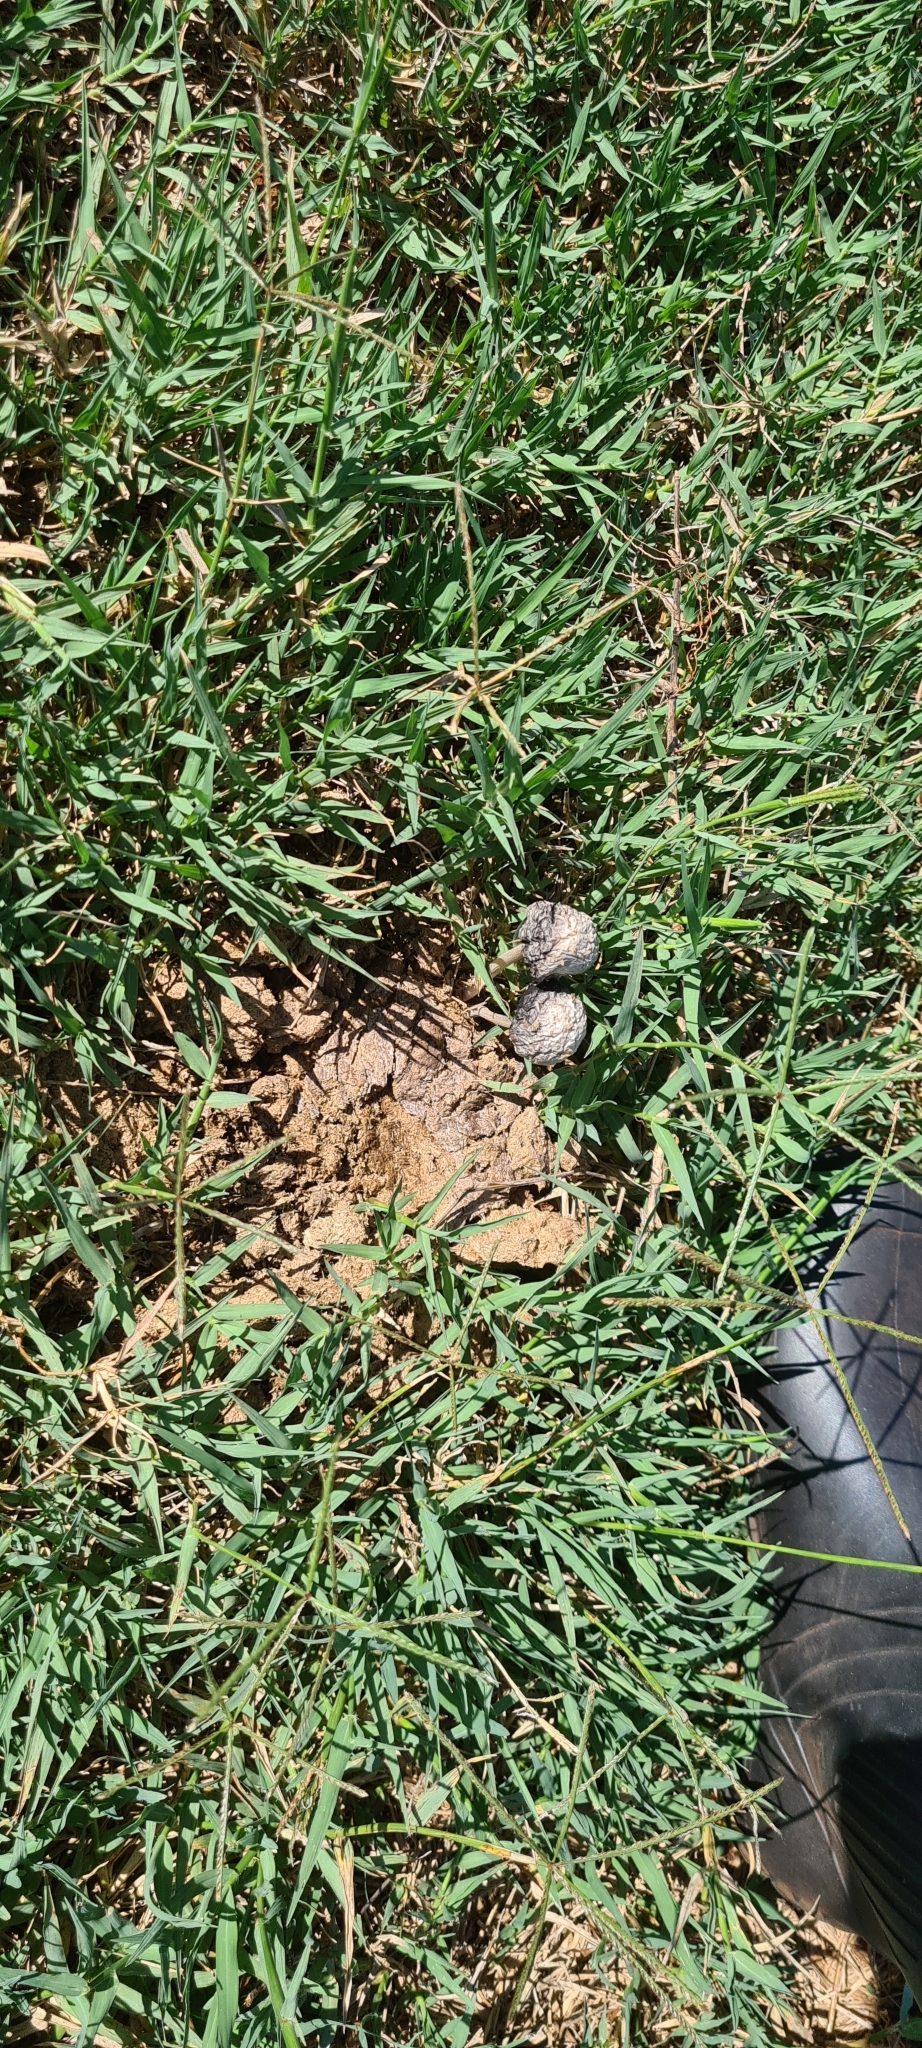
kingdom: Fungi
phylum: Basidiomycota
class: Agaricomycetes
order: Agaricales
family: Bolbitiaceae
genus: Panaeolus
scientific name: Panaeolus antillarum
